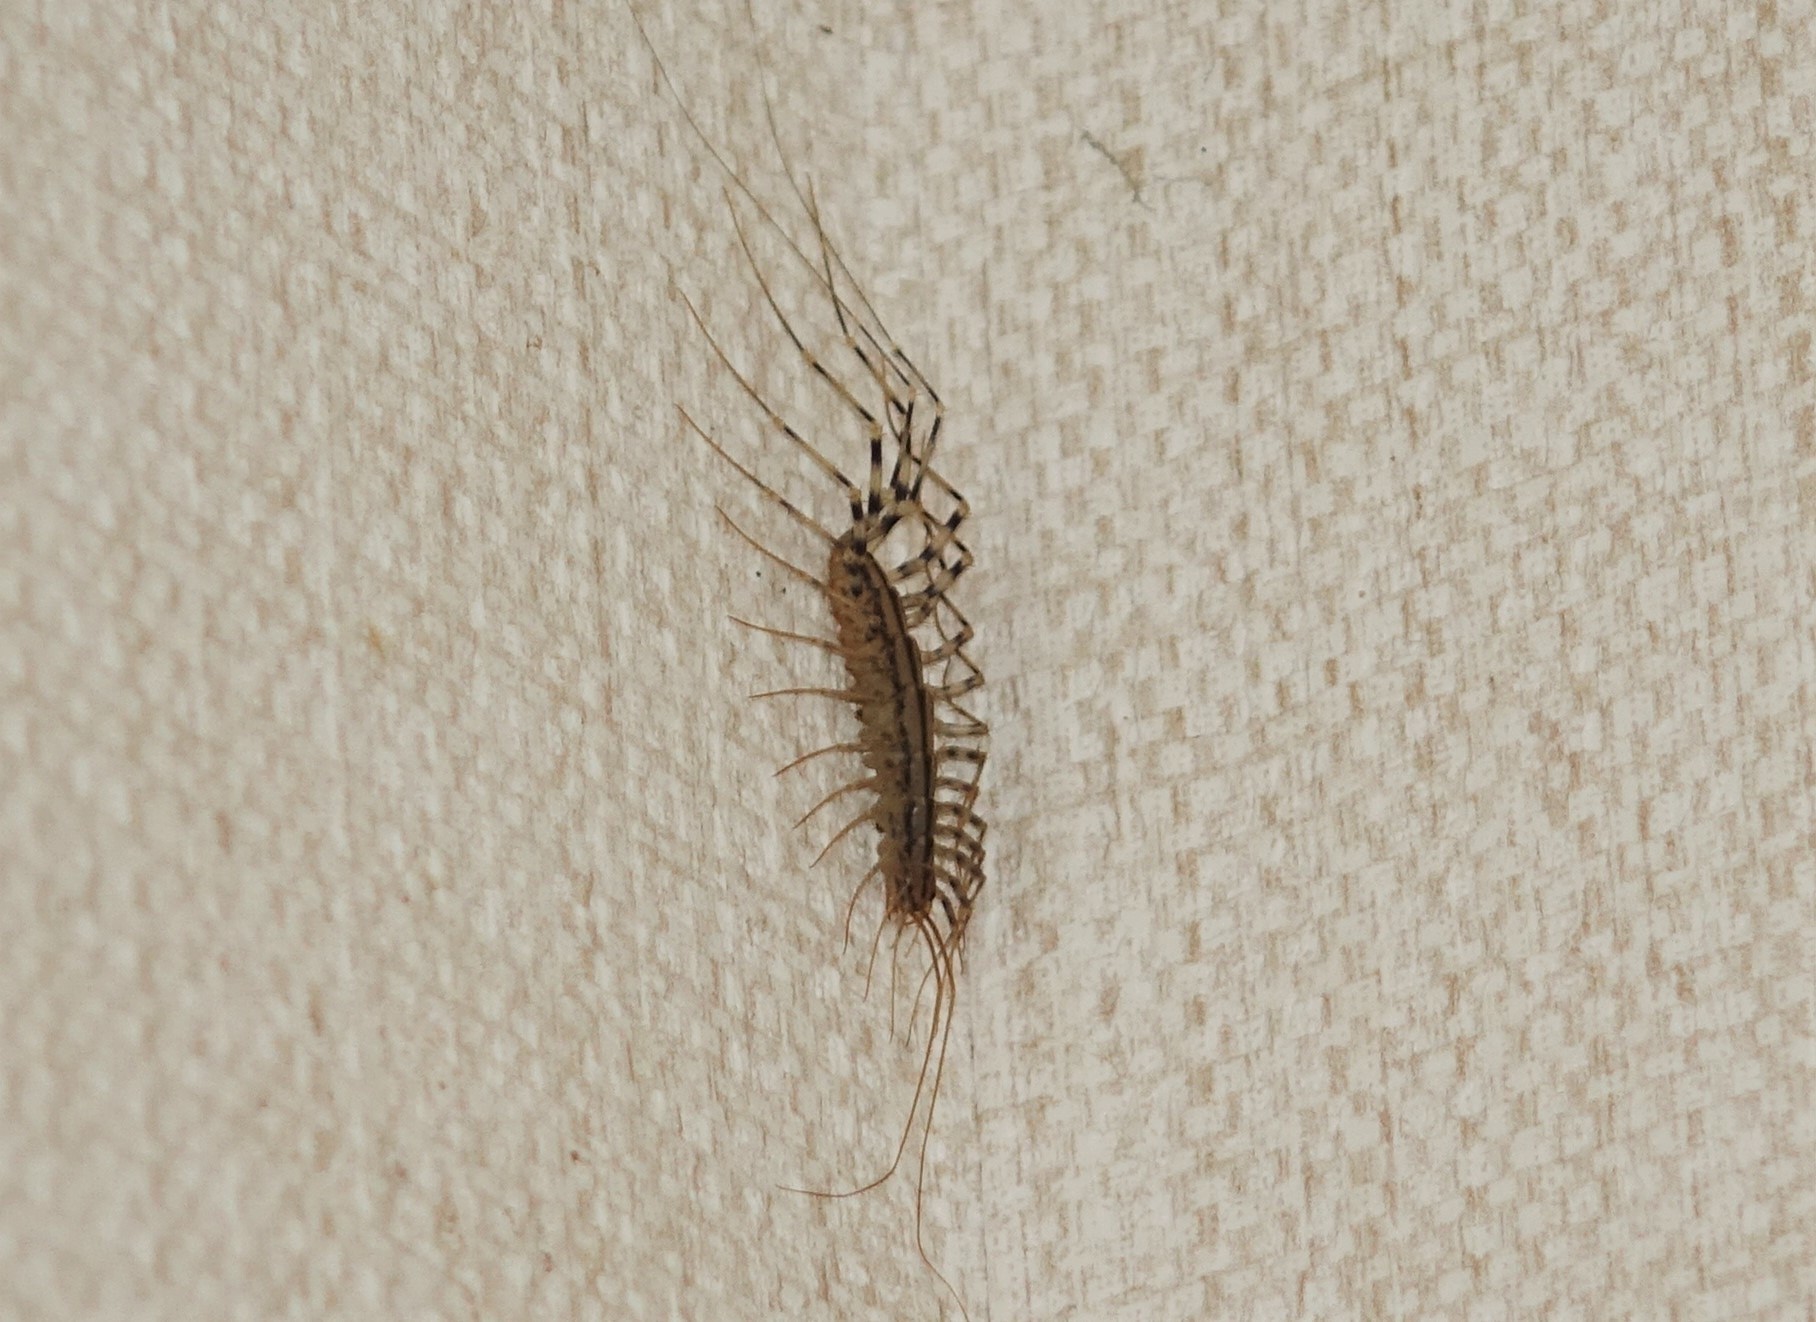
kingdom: Animalia
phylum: Arthropoda
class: Chilopoda
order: Scutigeromorpha
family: Scutigeridae
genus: Scutigera
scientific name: Scutigera smithii
